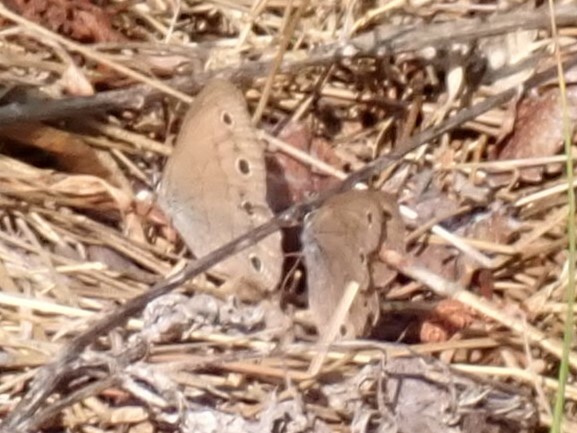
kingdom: Animalia
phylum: Arthropoda
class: Insecta
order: Lepidoptera
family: Nymphalidae
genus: Euptychia
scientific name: Euptychia cymela
